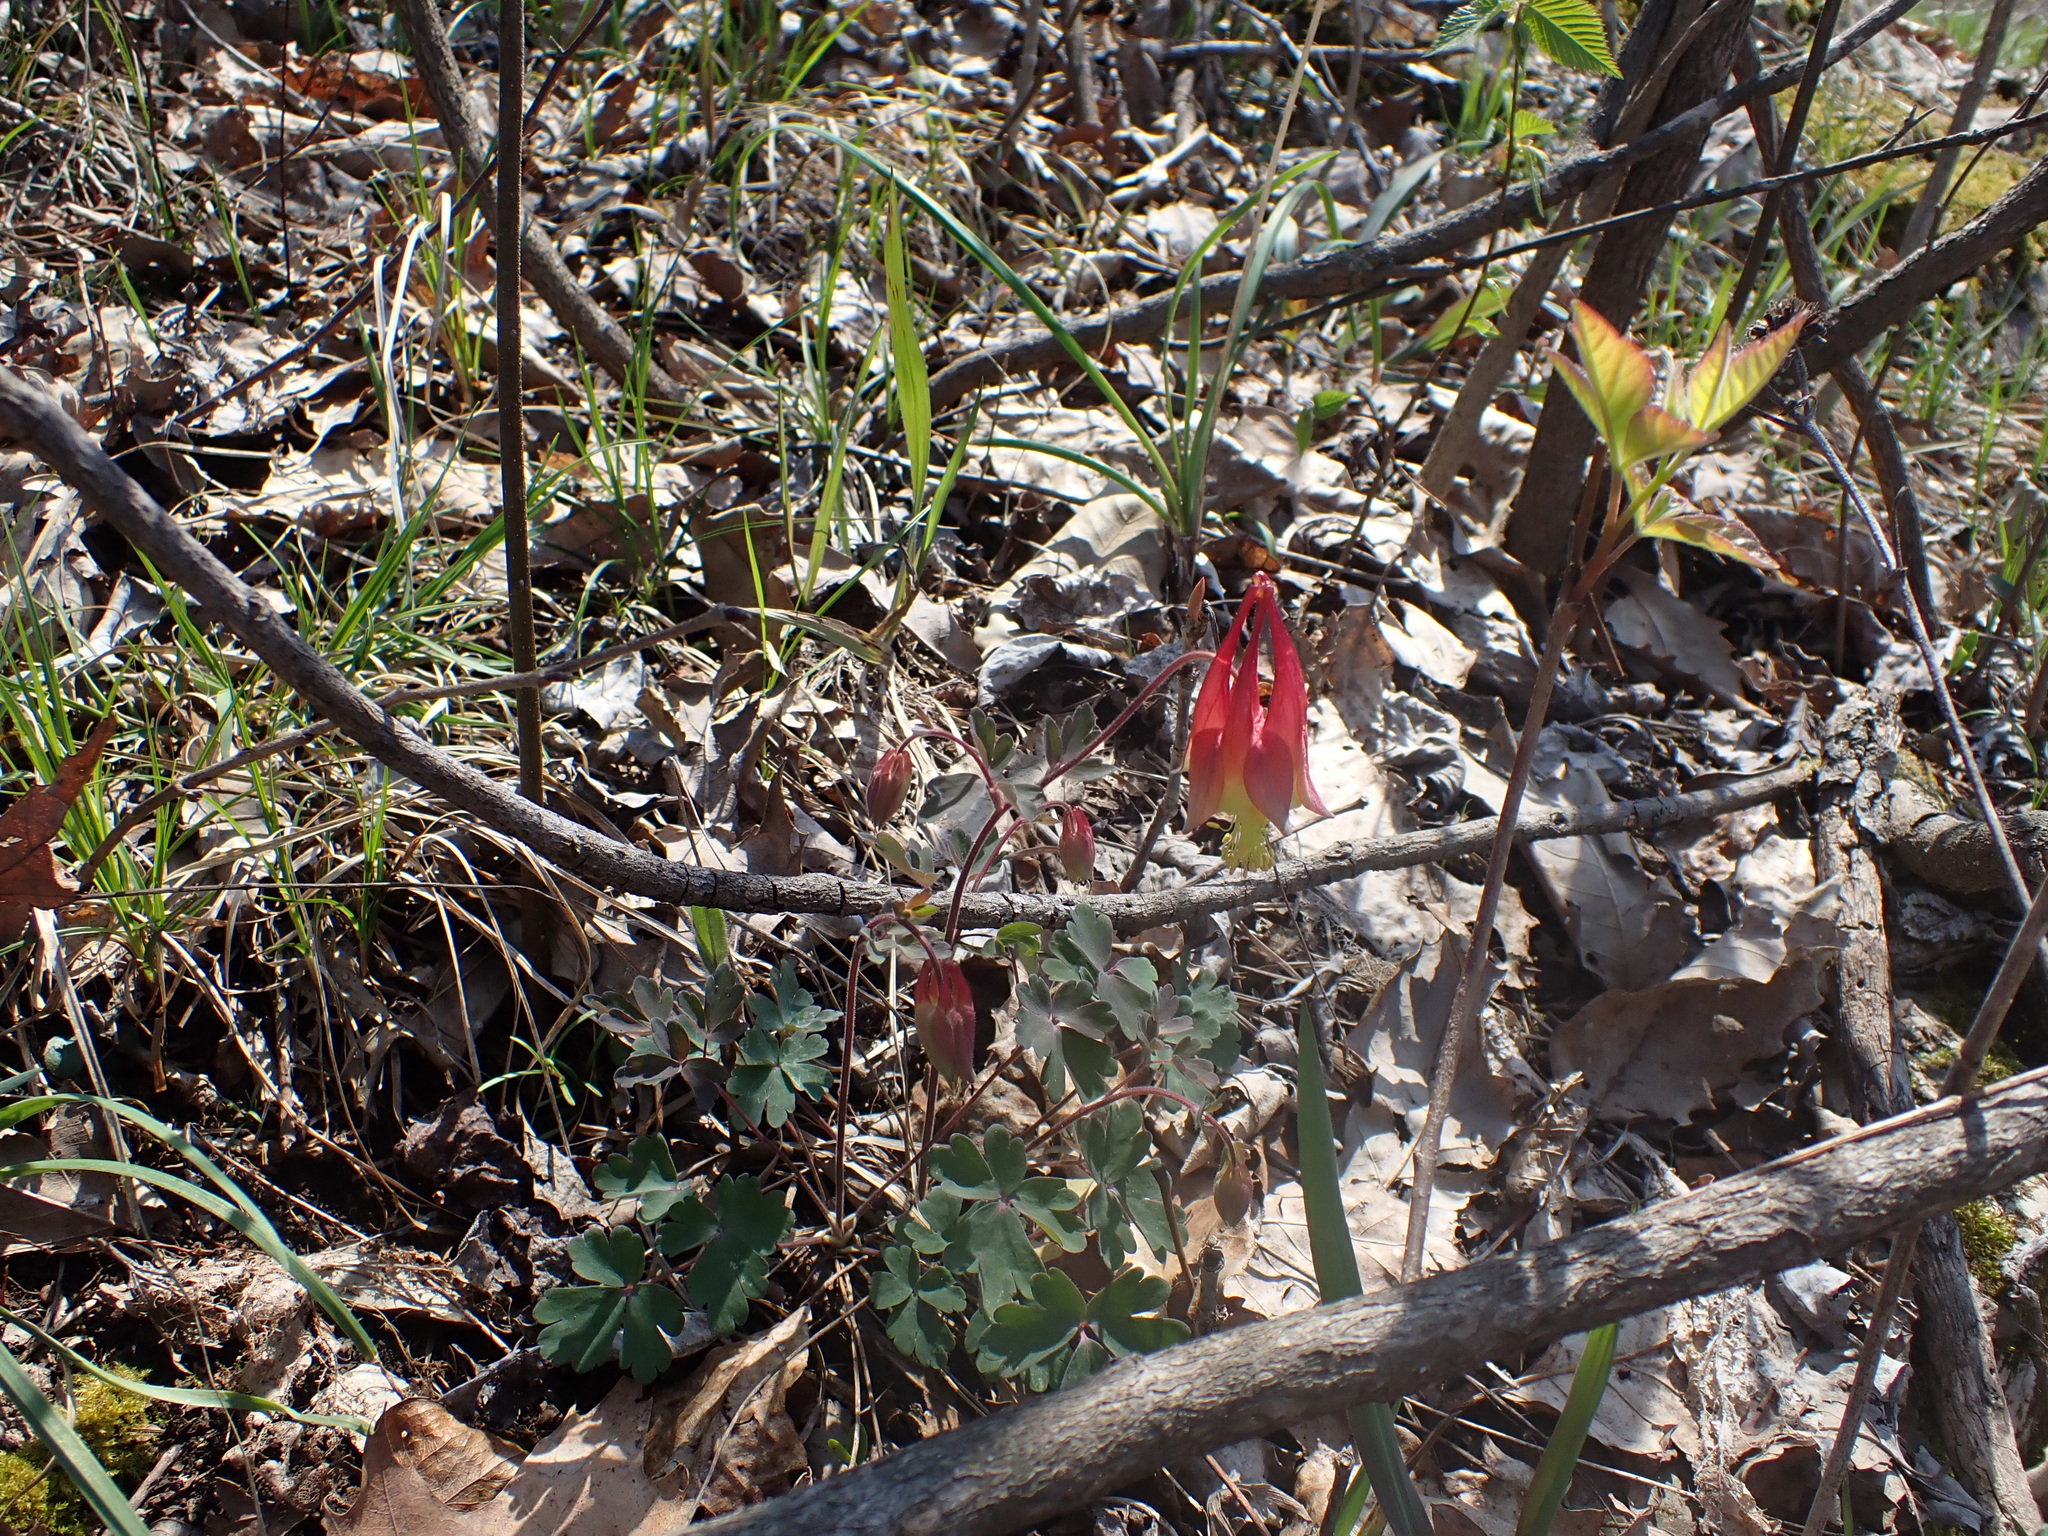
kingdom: Plantae
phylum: Tracheophyta
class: Magnoliopsida
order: Ranunculales
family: Ranunculaceae
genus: Aquilegia
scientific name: Aquilegia canadensis
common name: American columbine
